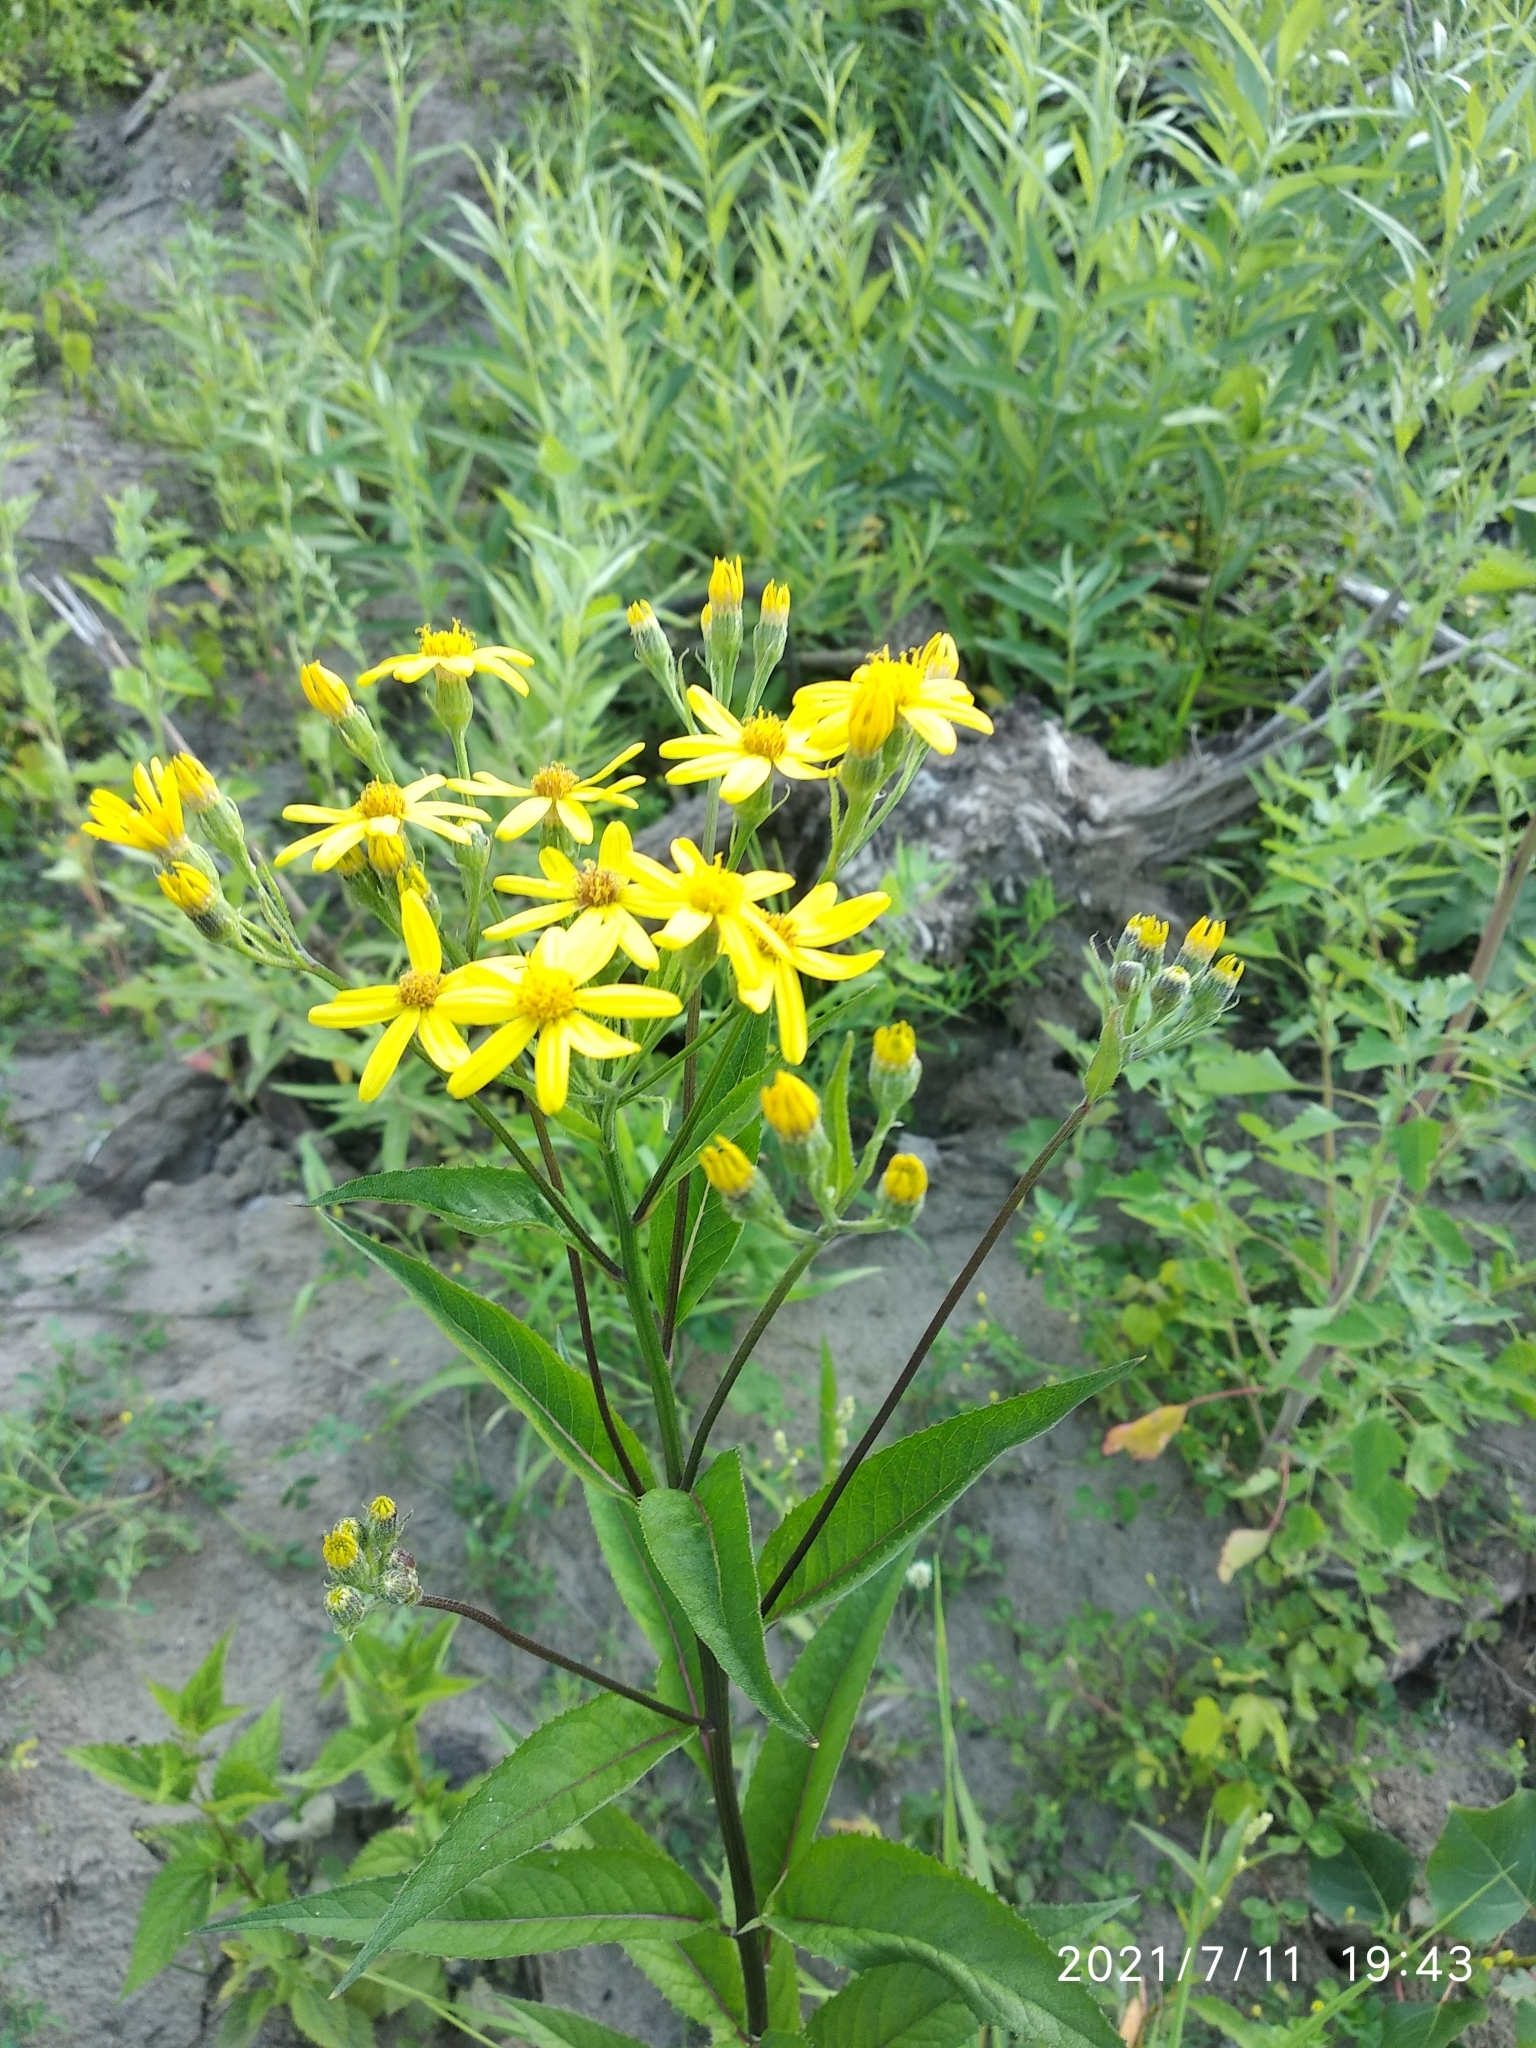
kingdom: Plantae
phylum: Tracheophyta
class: Magnoliopsida
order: Asterales
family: Asteraceae
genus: Senecio
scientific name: Senecio nemorensis
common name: Alpine ragwort
